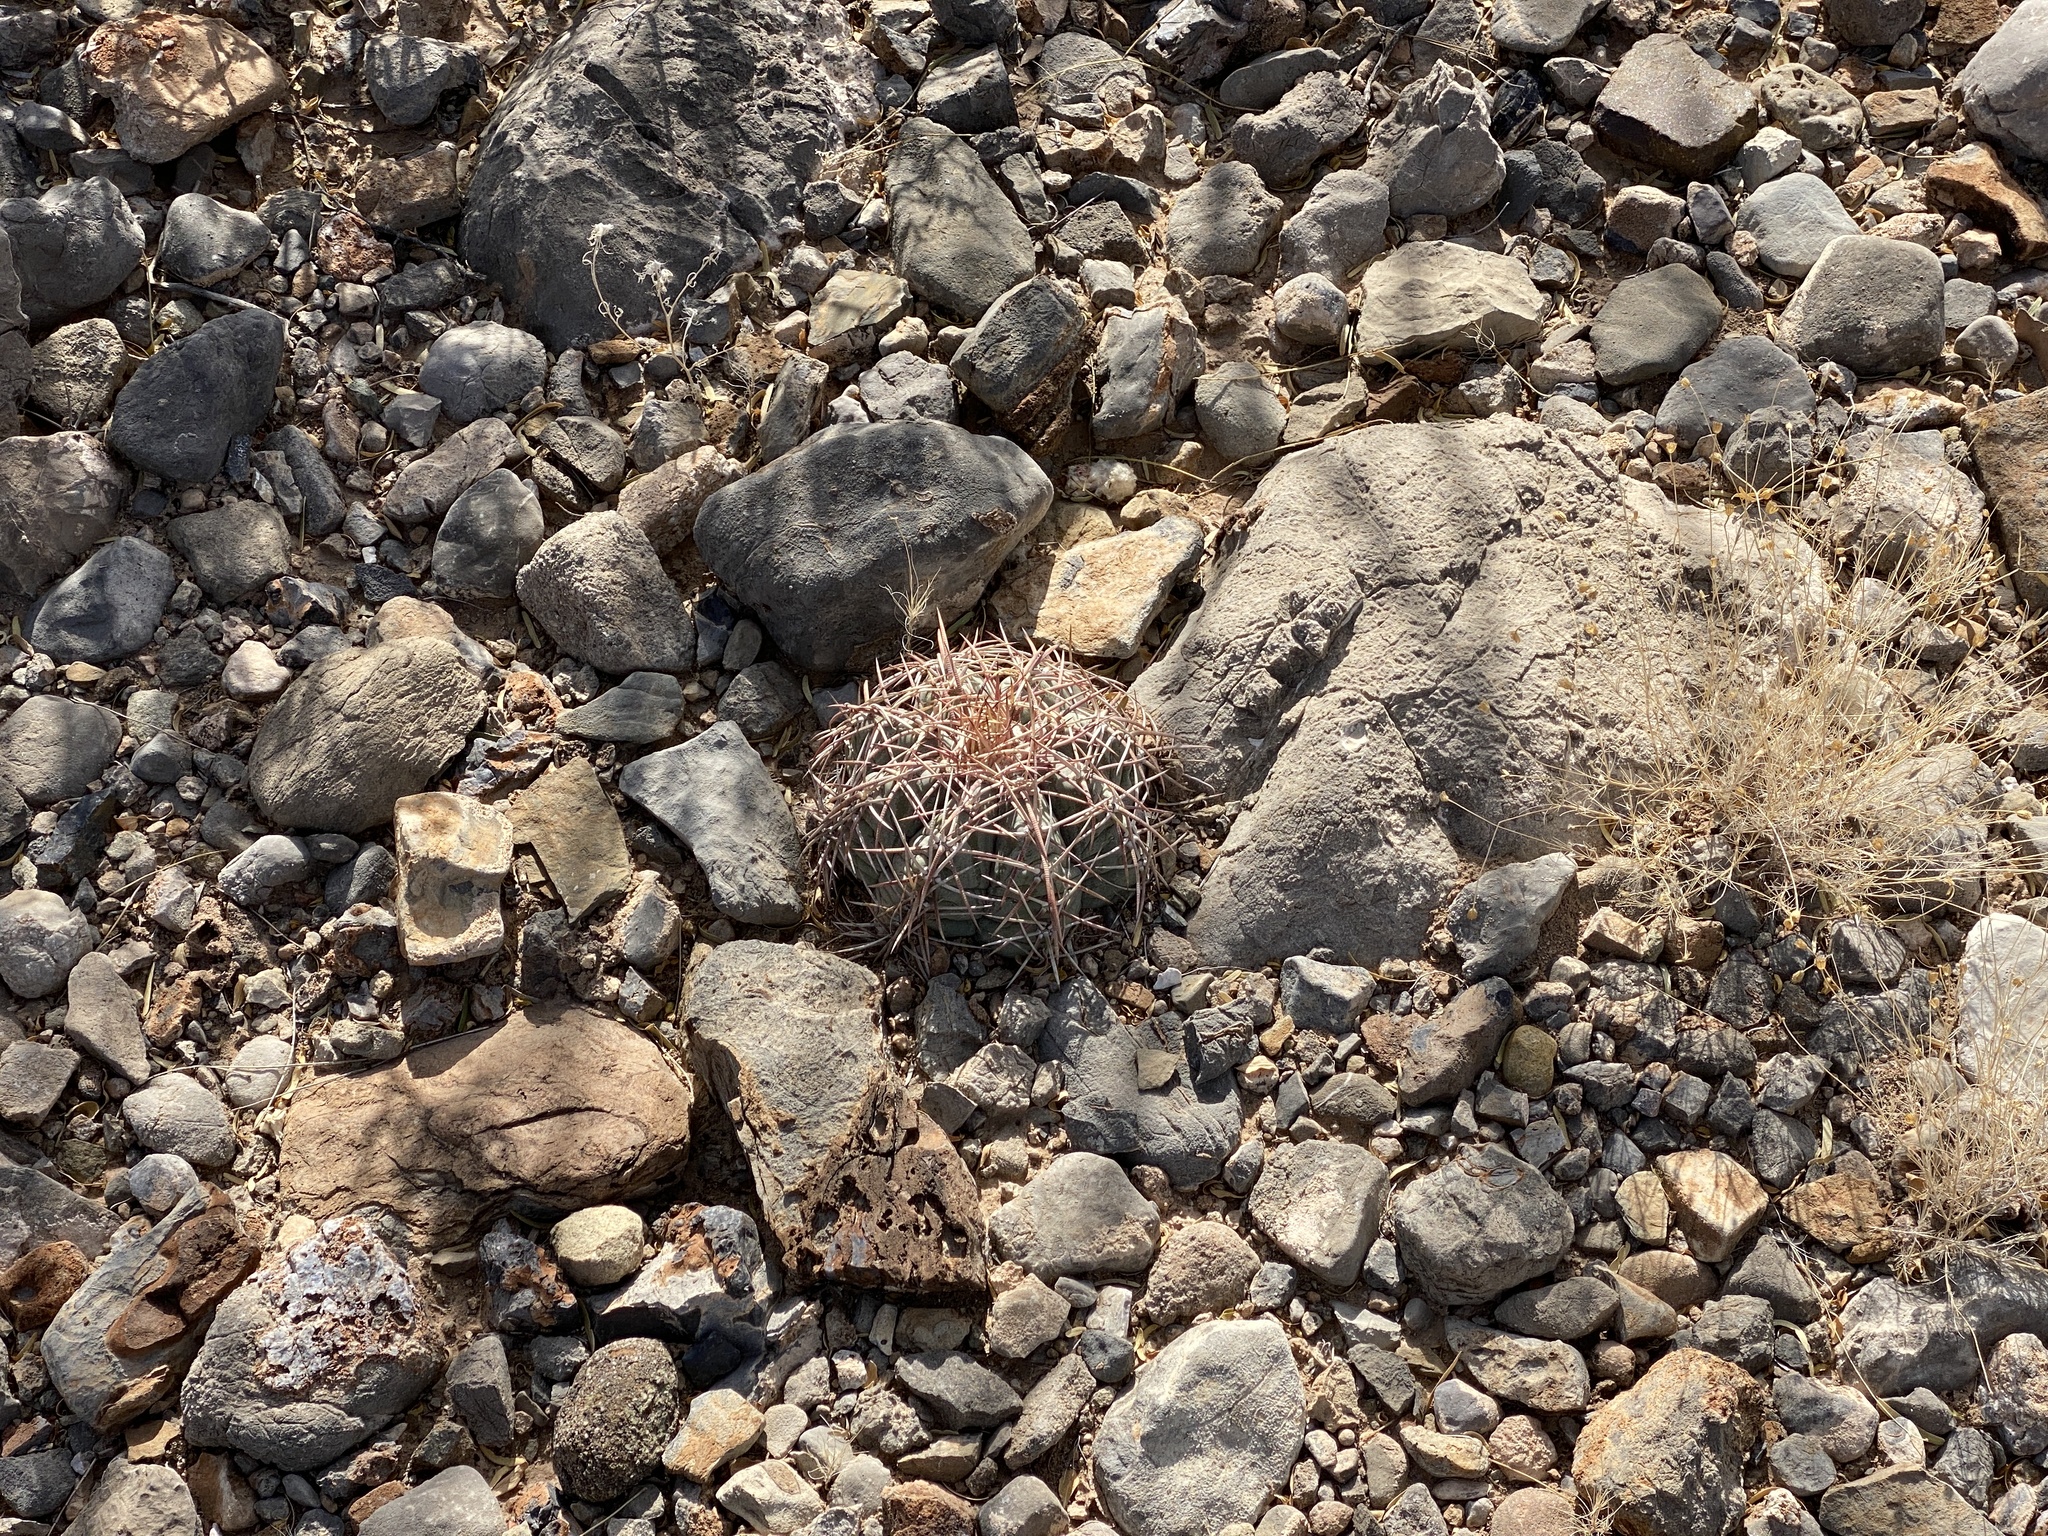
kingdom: Plantae
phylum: Tracheophyta
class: Magnoliopsida
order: Caryophyllales
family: Cactaceae
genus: Echinocactus
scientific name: Echinocactus horizonthalonius
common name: Devilshead
